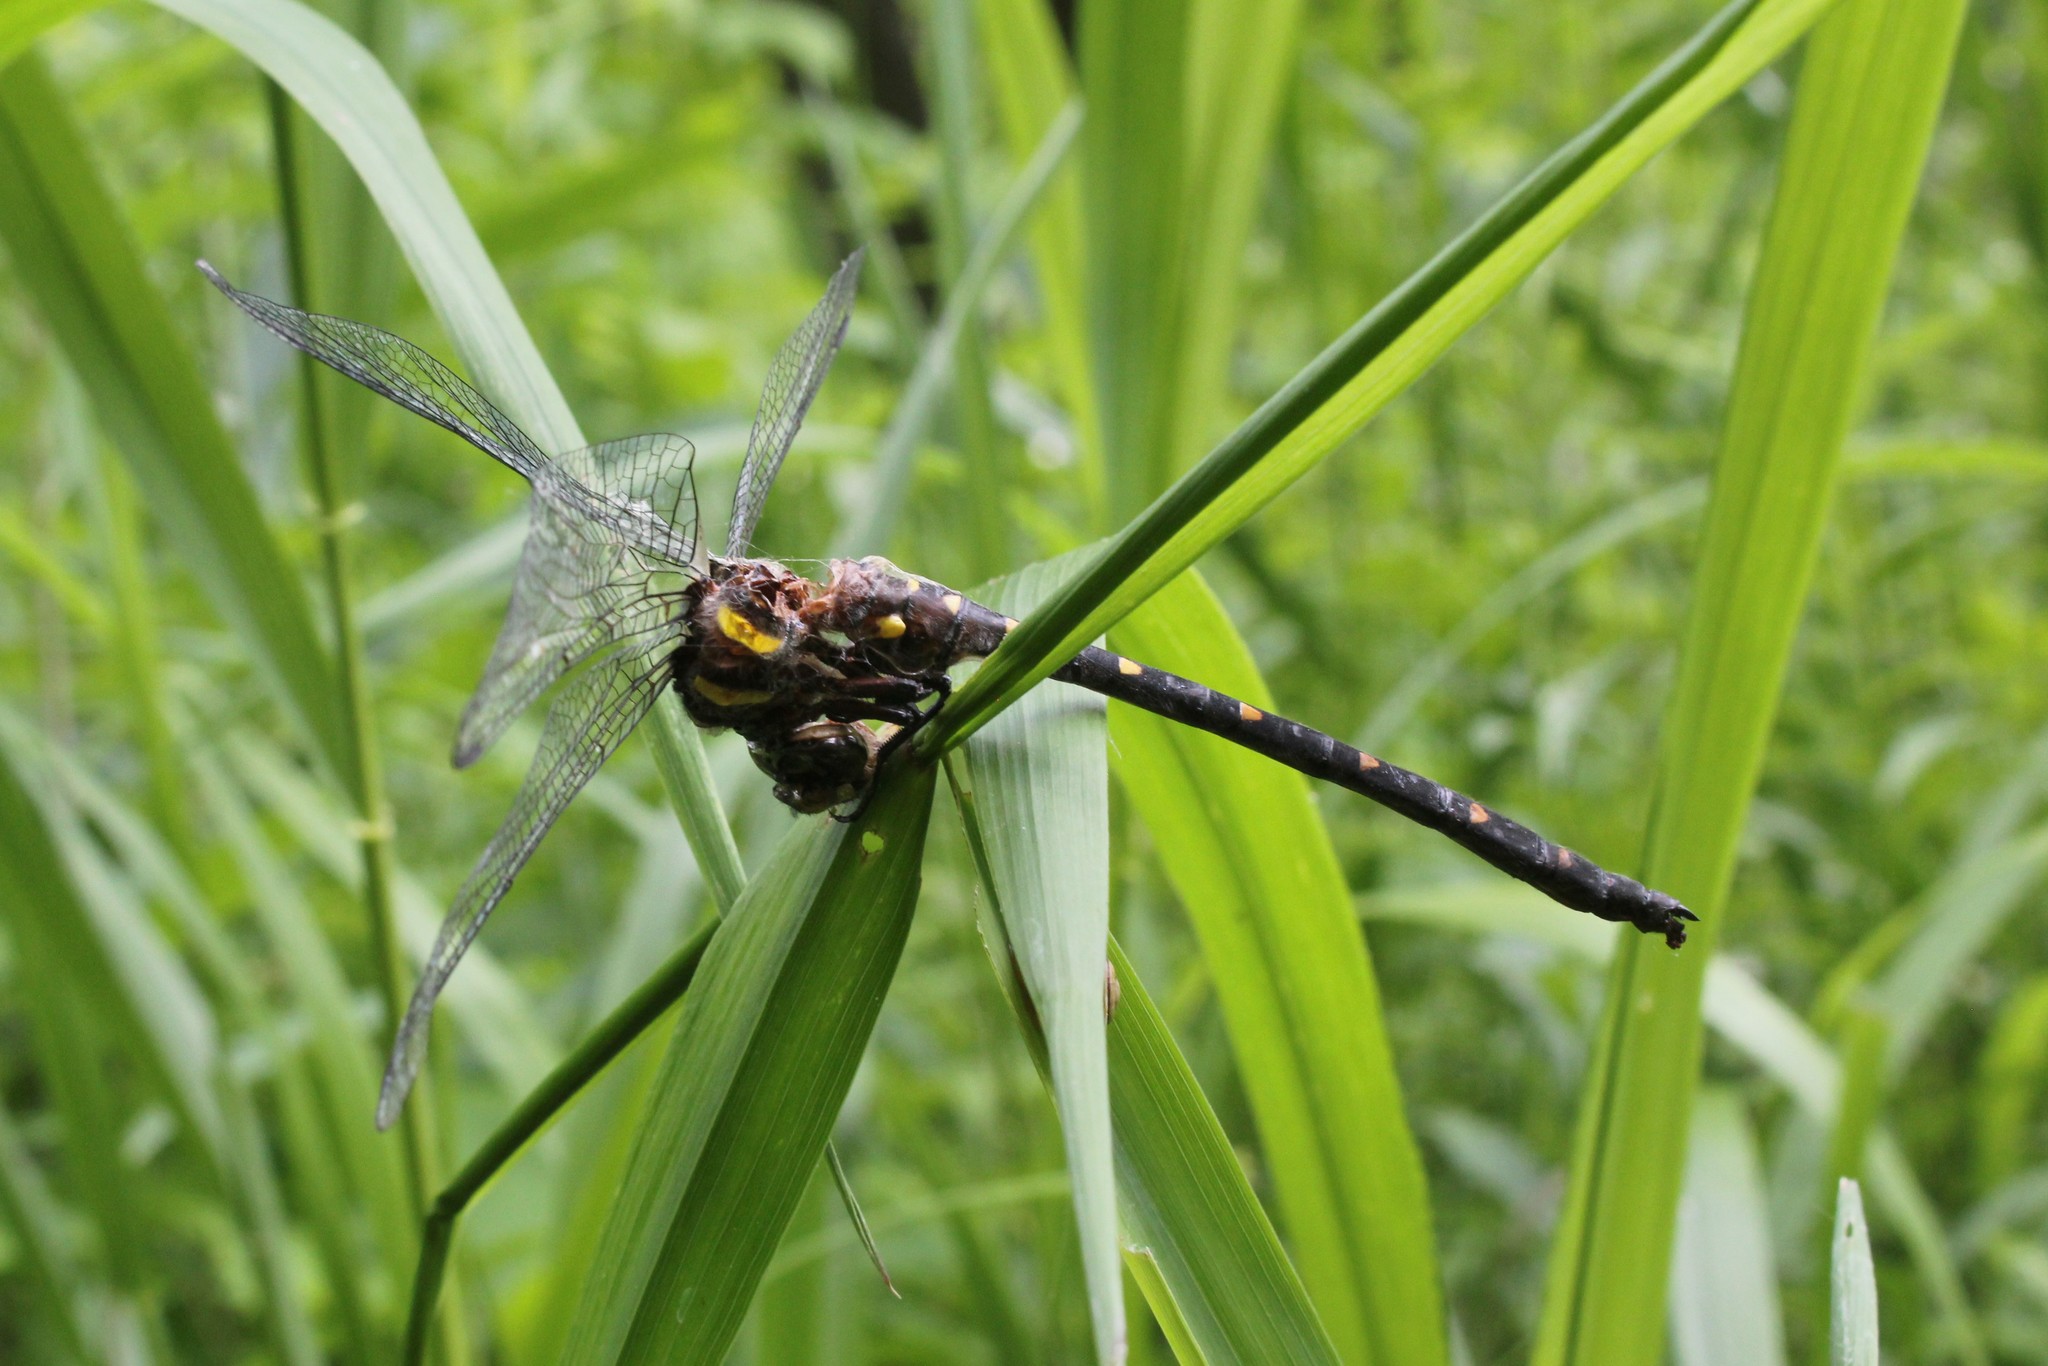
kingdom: Animalia
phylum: Arthropoda
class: Insecta
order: Odonata
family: Cordulegastridae
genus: Cordulegaster
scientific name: Cordulegaster maculata
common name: Twin-spotted spiketail
